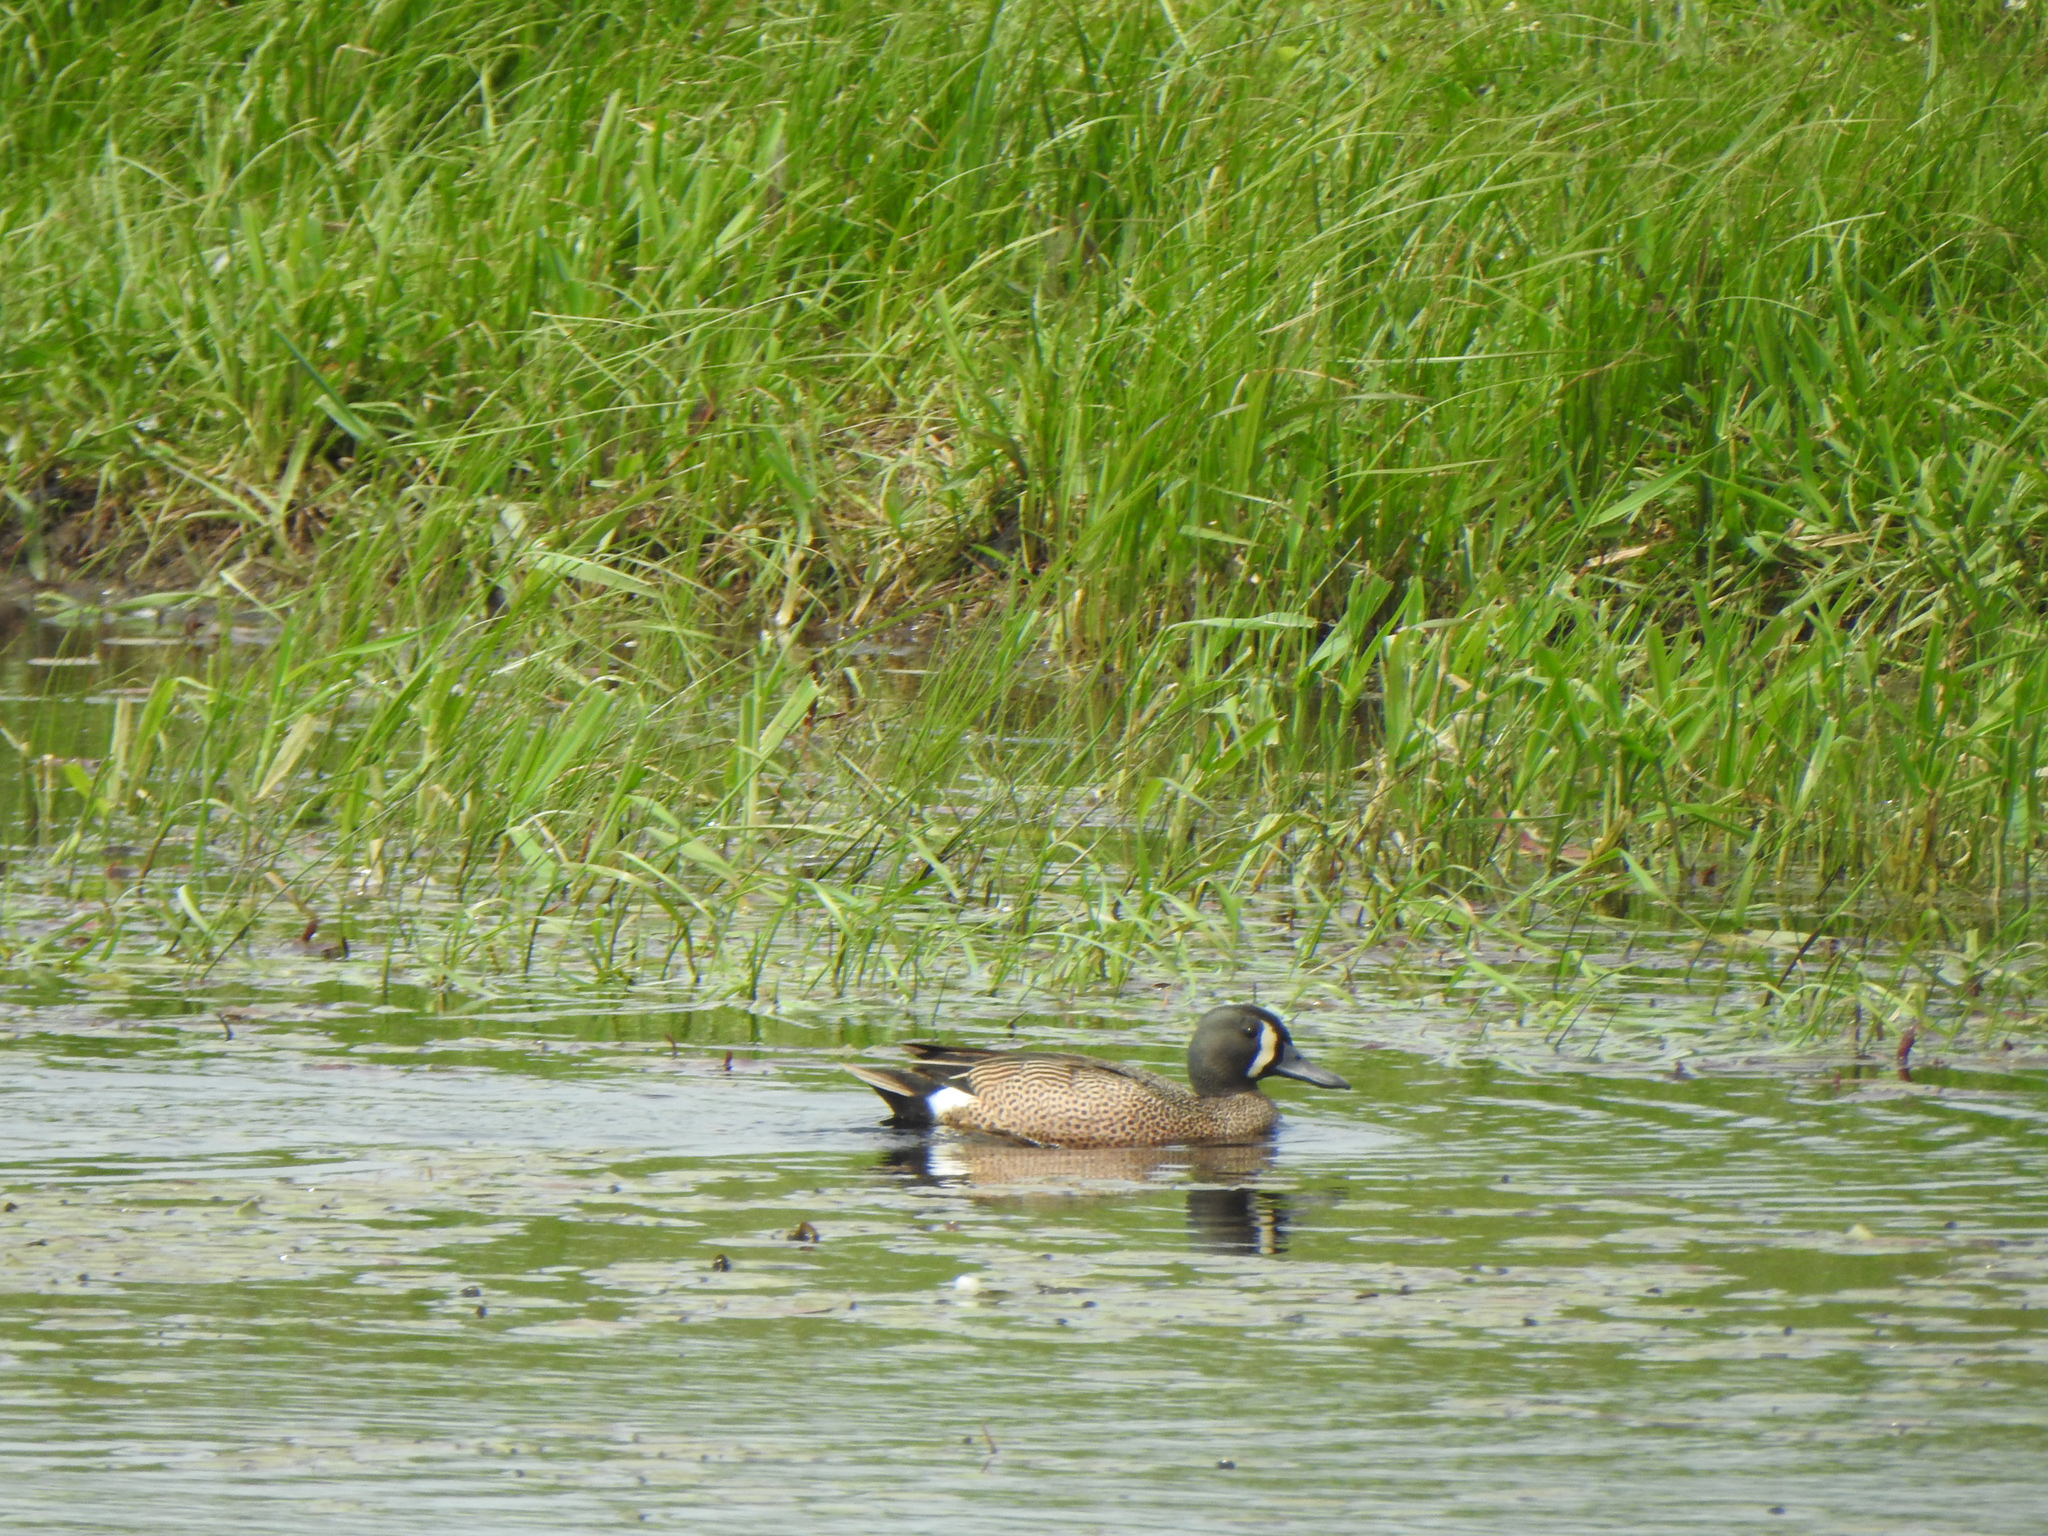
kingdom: Animalia
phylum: Chordata
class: Aves
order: Anseriformes
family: Anatidae
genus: Spatula
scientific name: Spatula discors
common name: Blue-winged teal
